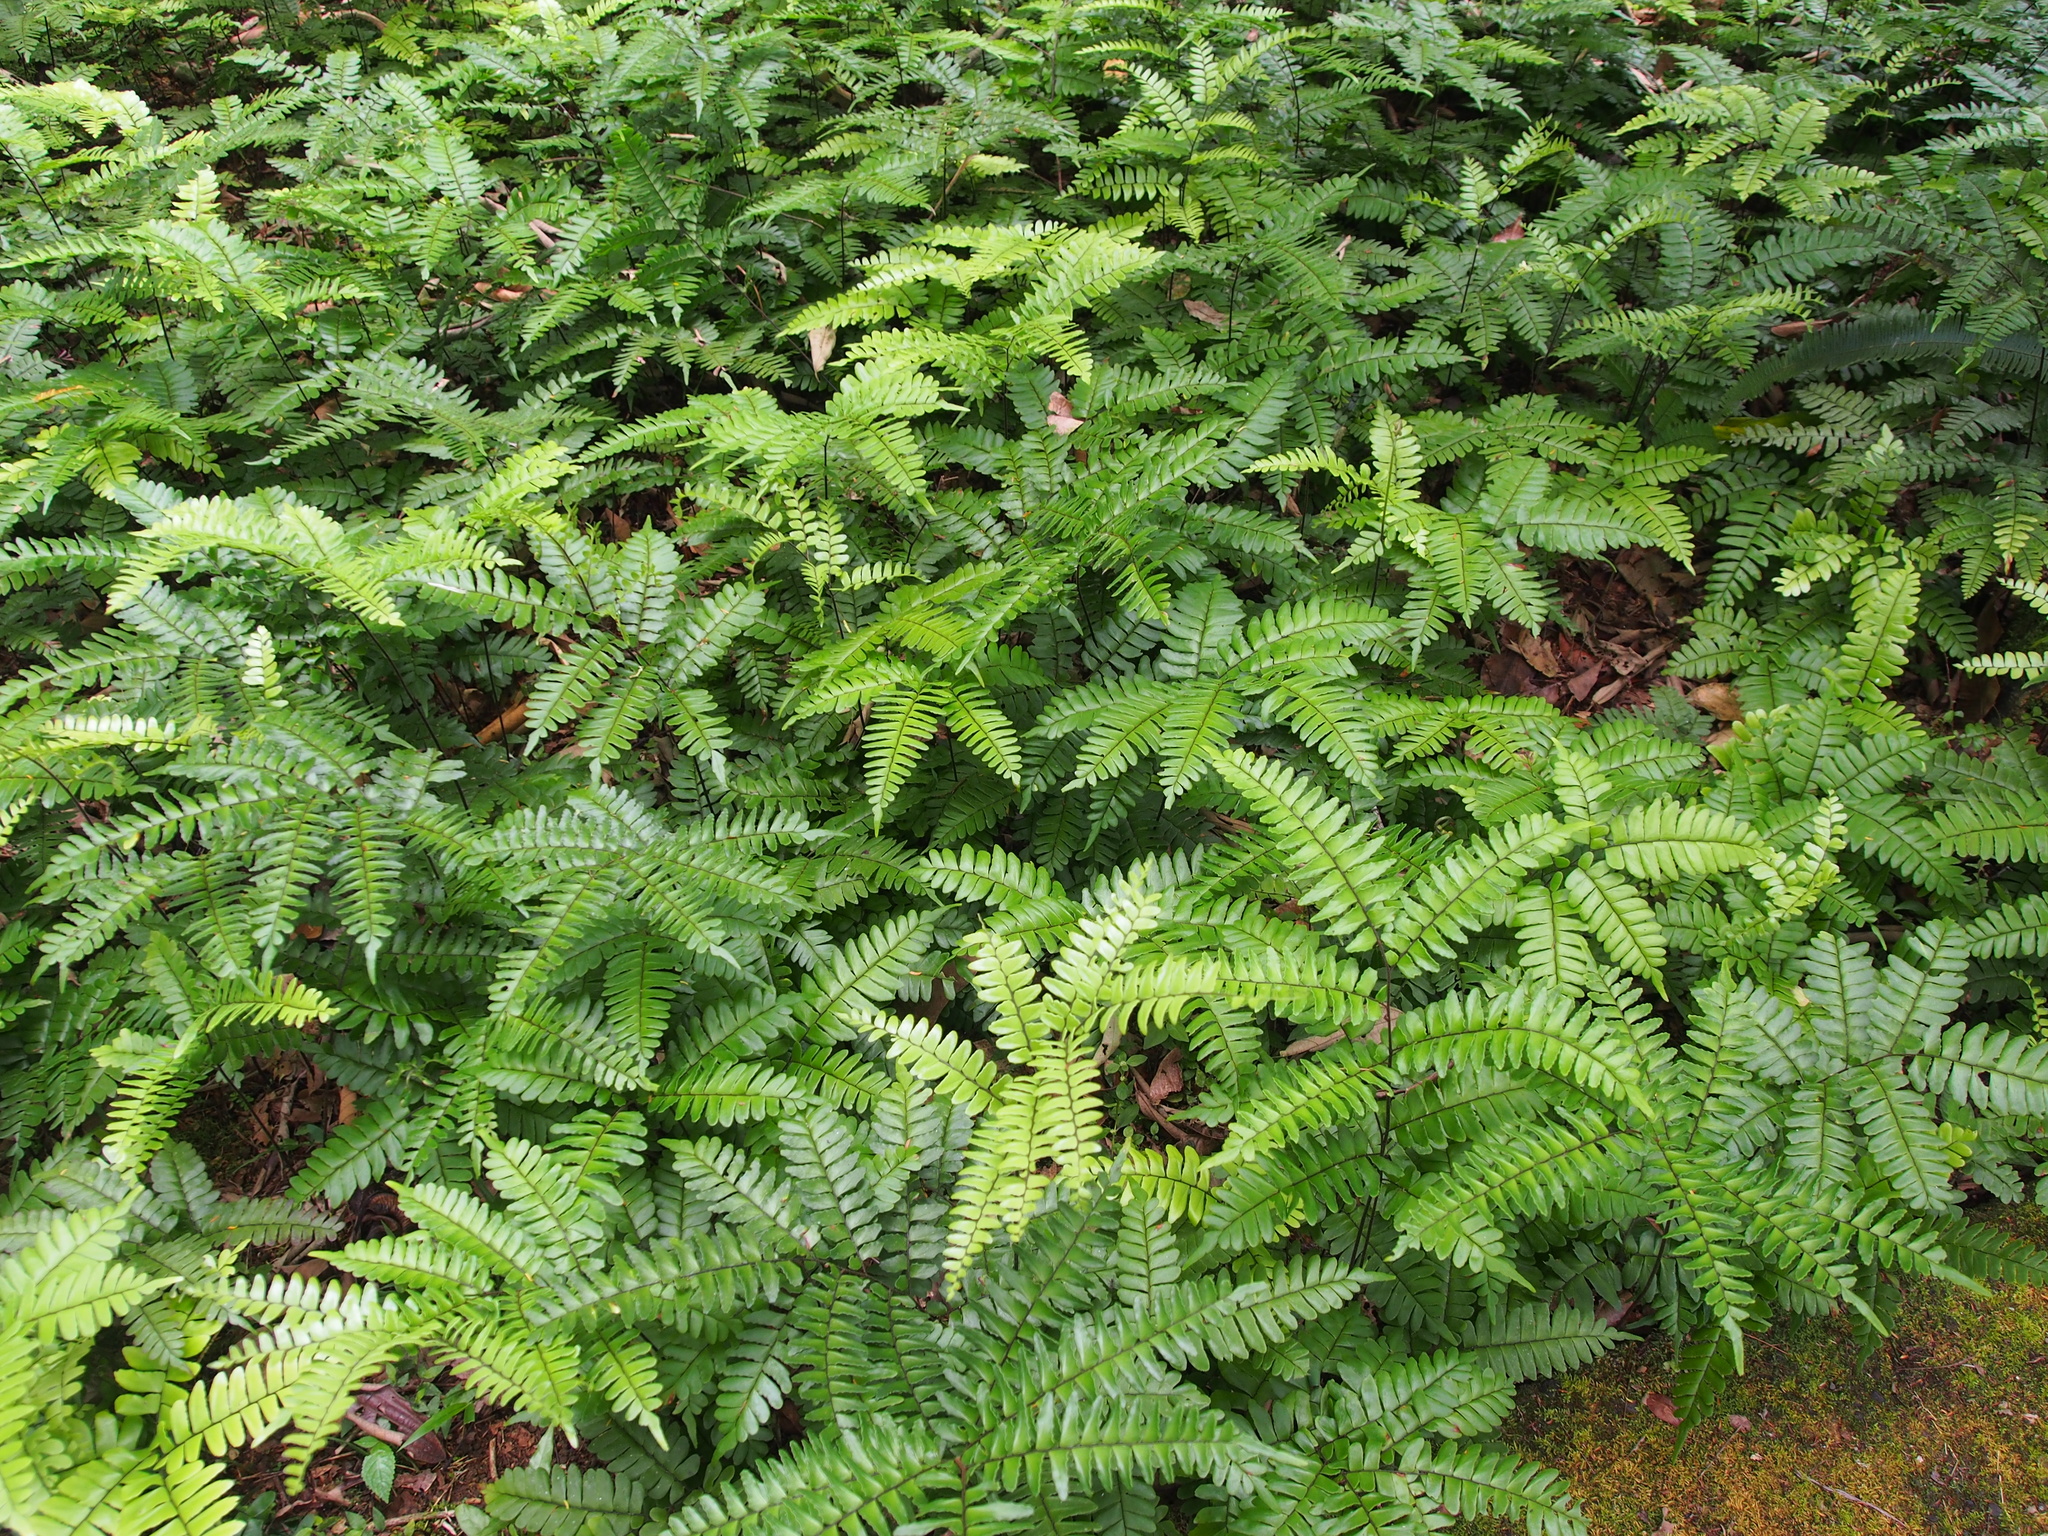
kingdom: Plantae
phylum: Tracheophyta
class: Polypodiopsida
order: Polypodiales
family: Pteridaceae
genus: Adiantum
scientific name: Adiantum latifolium
